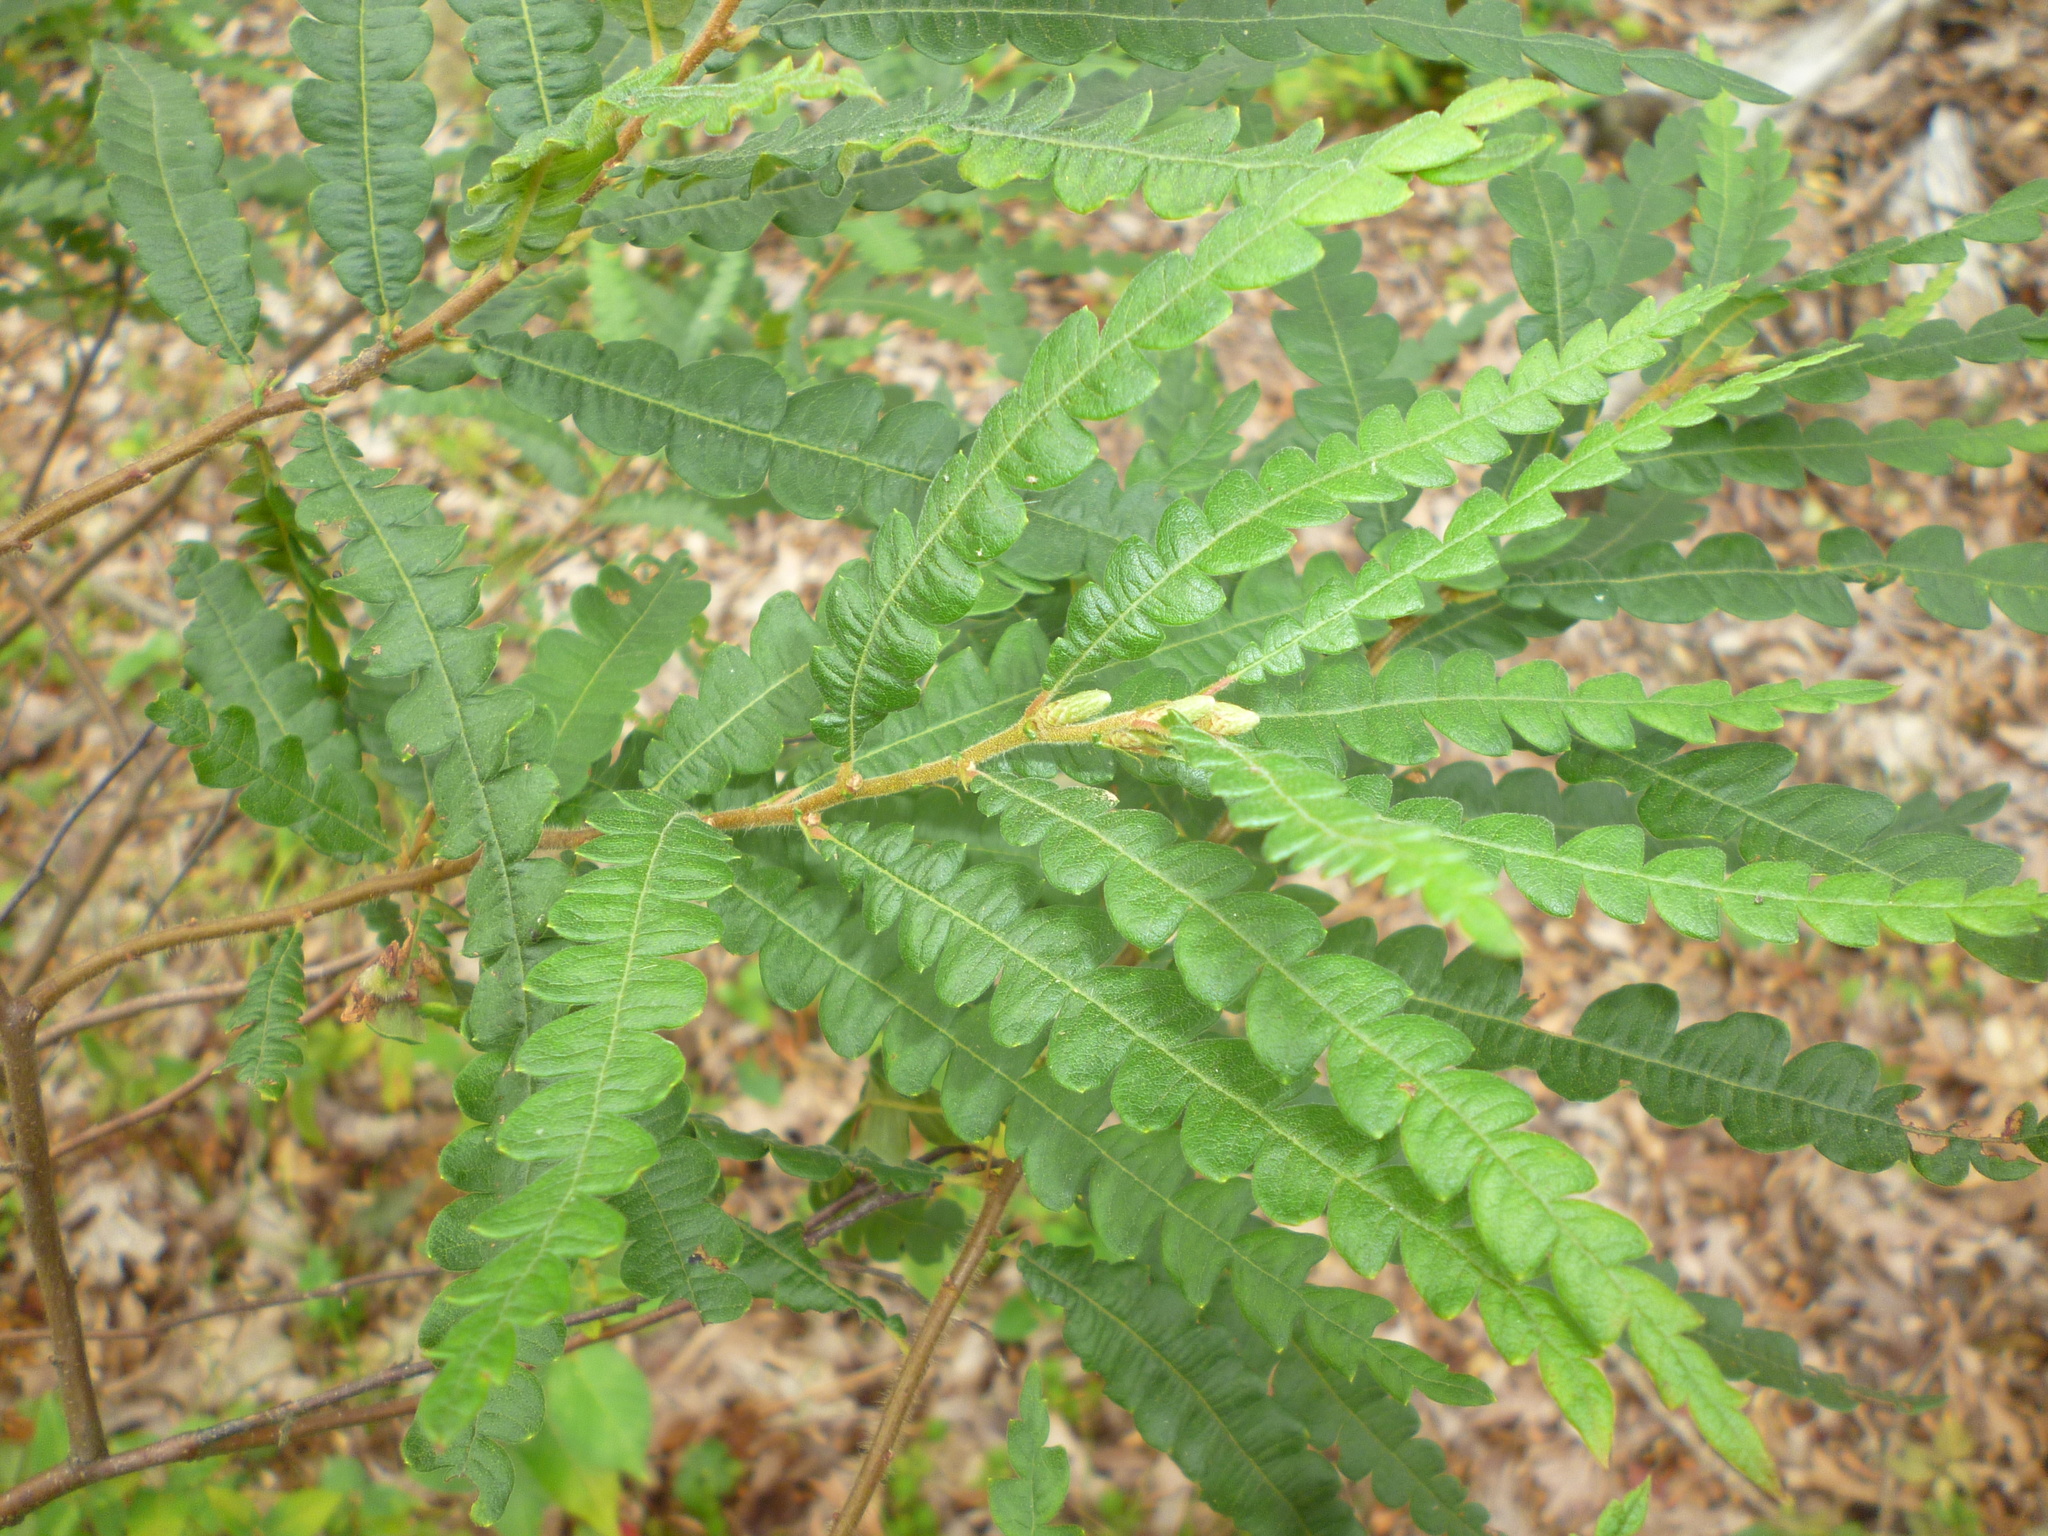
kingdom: Plantae
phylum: Tracheophyta
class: Magnoliopsida
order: Fagales
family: Myricaceae
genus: Comptonia
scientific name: Comptonia peregrina
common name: Sweet-fern
